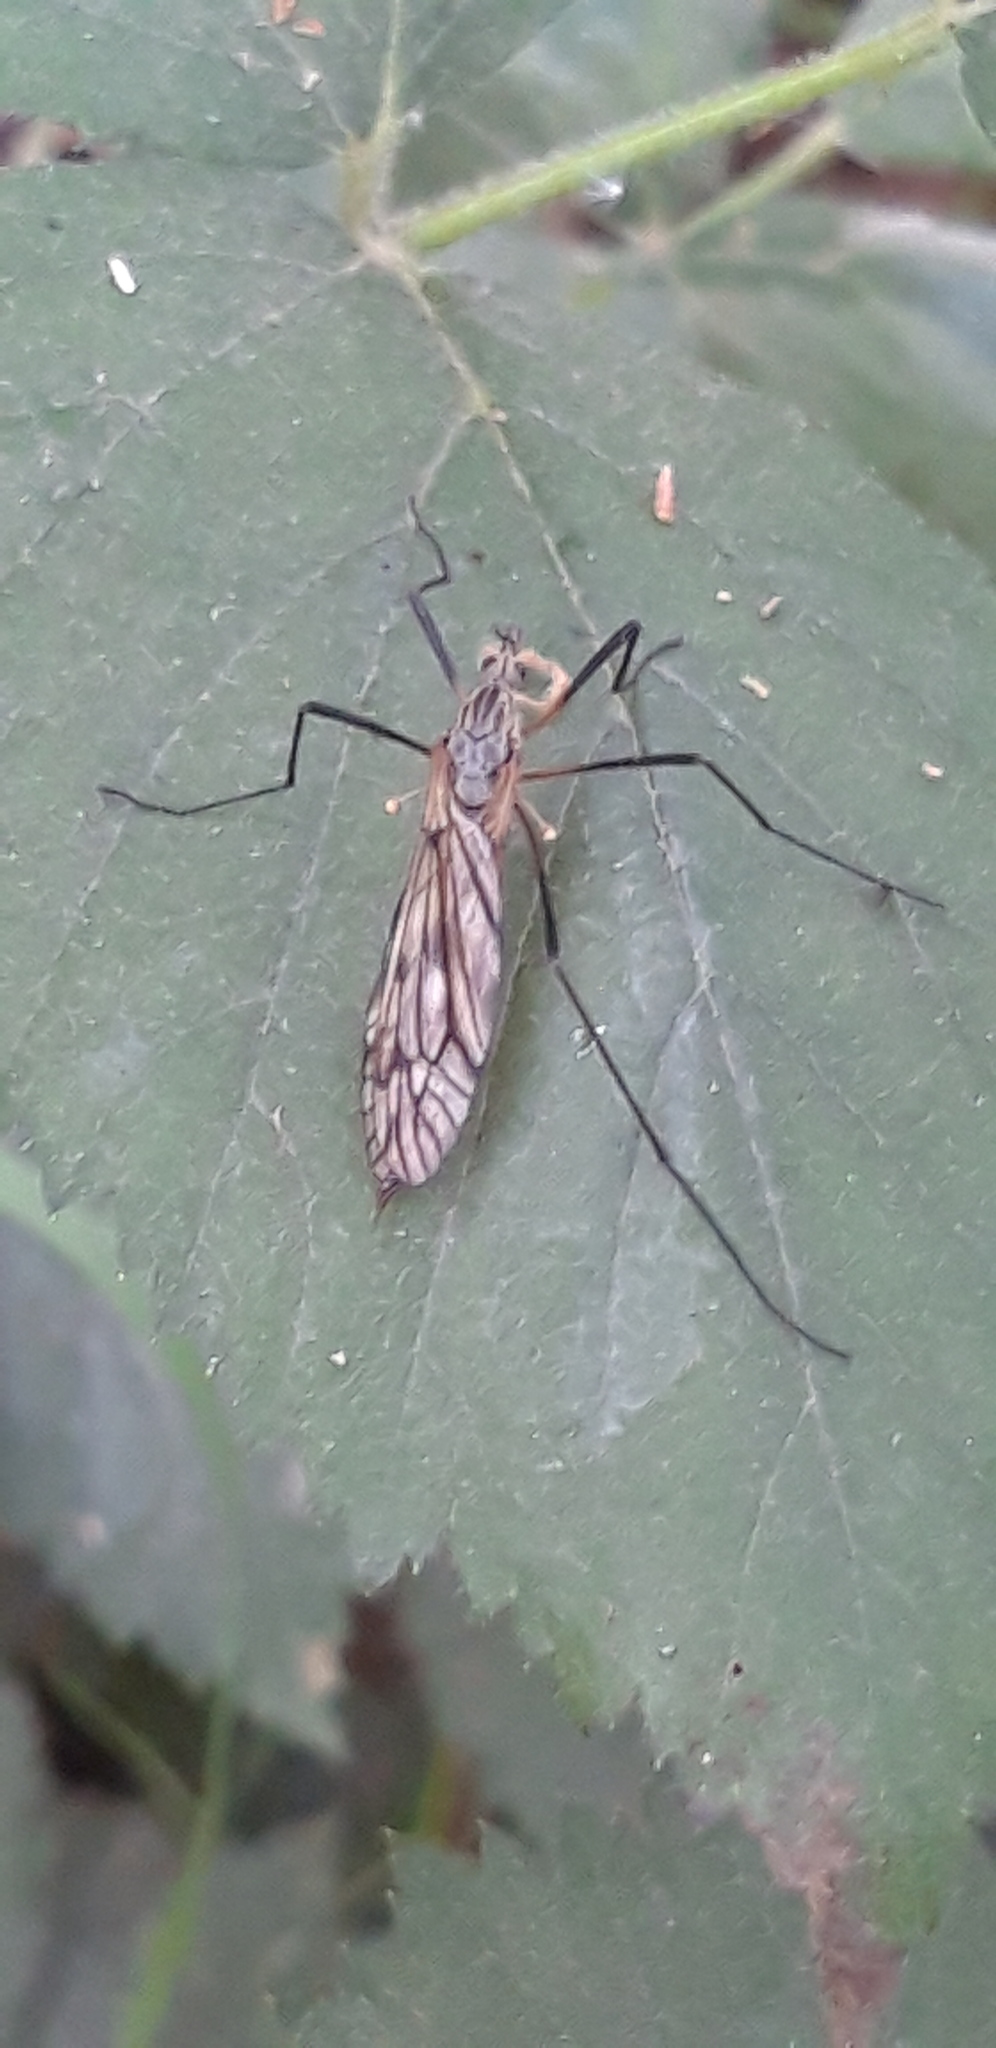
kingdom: Animalia
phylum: Arthropoda
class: Insecta
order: Diptera
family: Tipulidae
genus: Tipula
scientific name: Tipula varipennis
